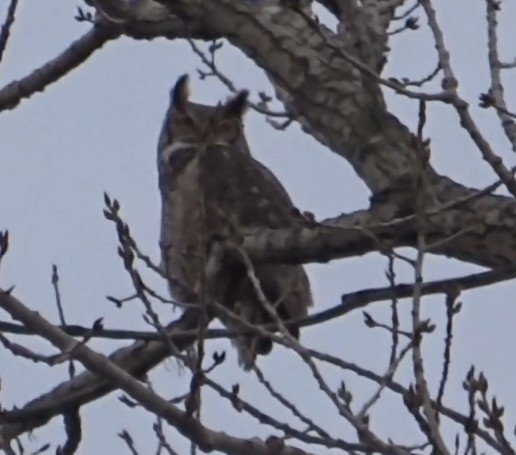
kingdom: Animalia
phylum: Chordata
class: Aves
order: Strigiformes
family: Strigidae
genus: Bubo
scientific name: Bubo virginianus
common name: Great horned owl
